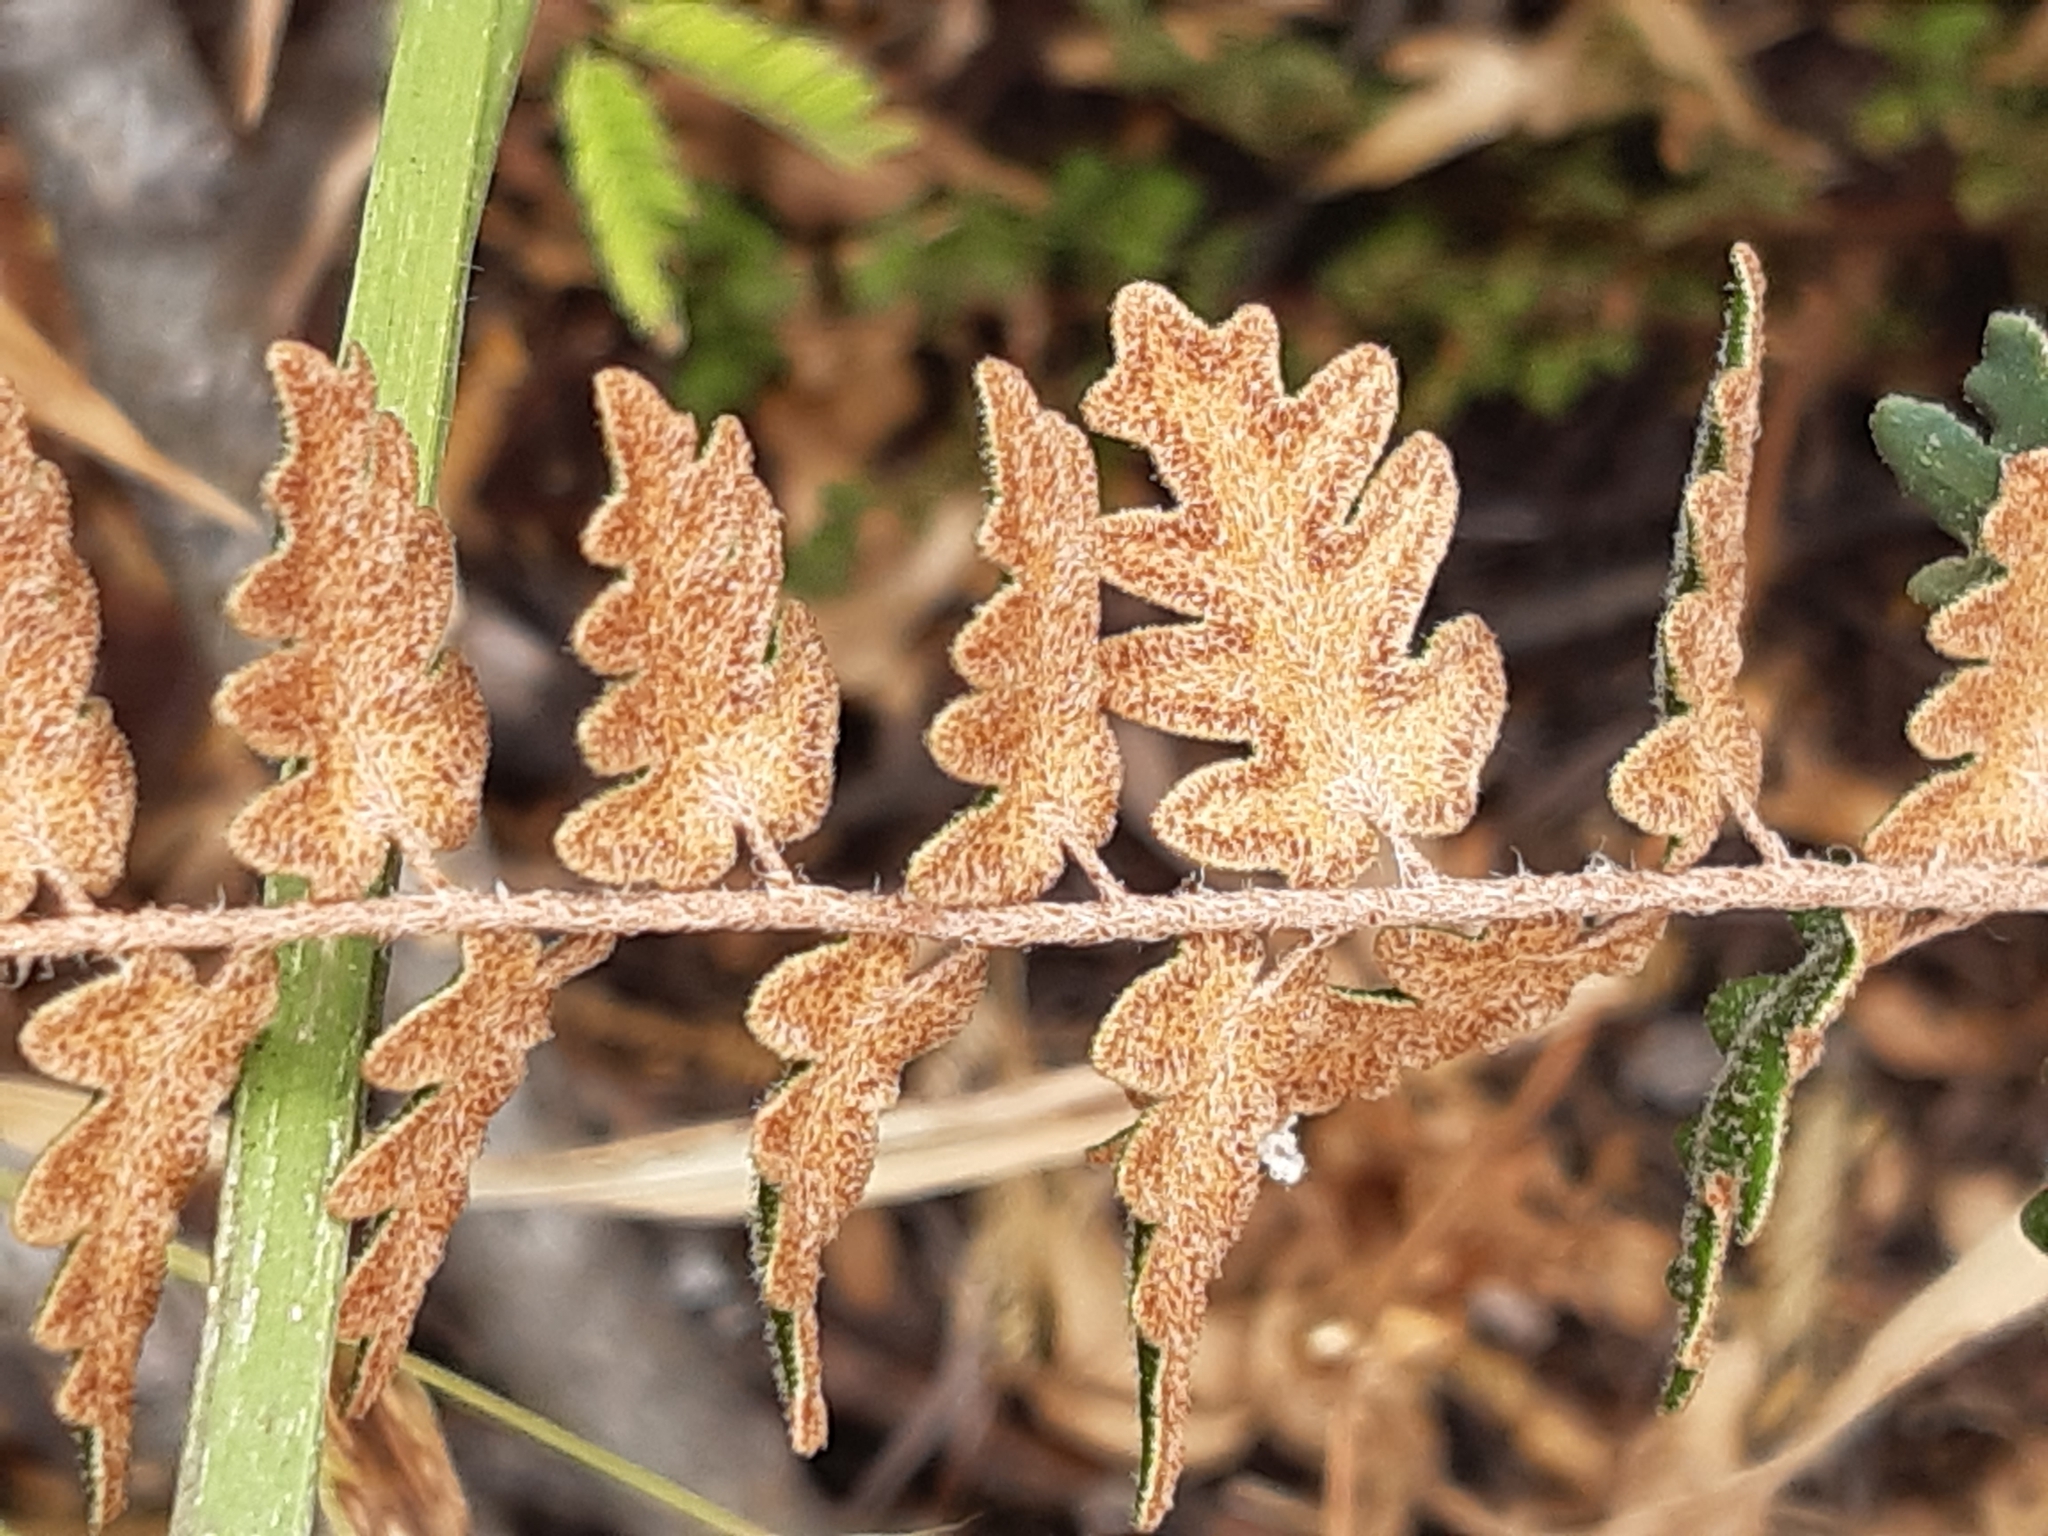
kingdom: Plantae
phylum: Tracheophyta
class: Polypodiopsida
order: Polypodiales
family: Pteridaceae
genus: Astrolepis
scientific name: Astrolepis sinuata
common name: Wavy scaly cloakfern
